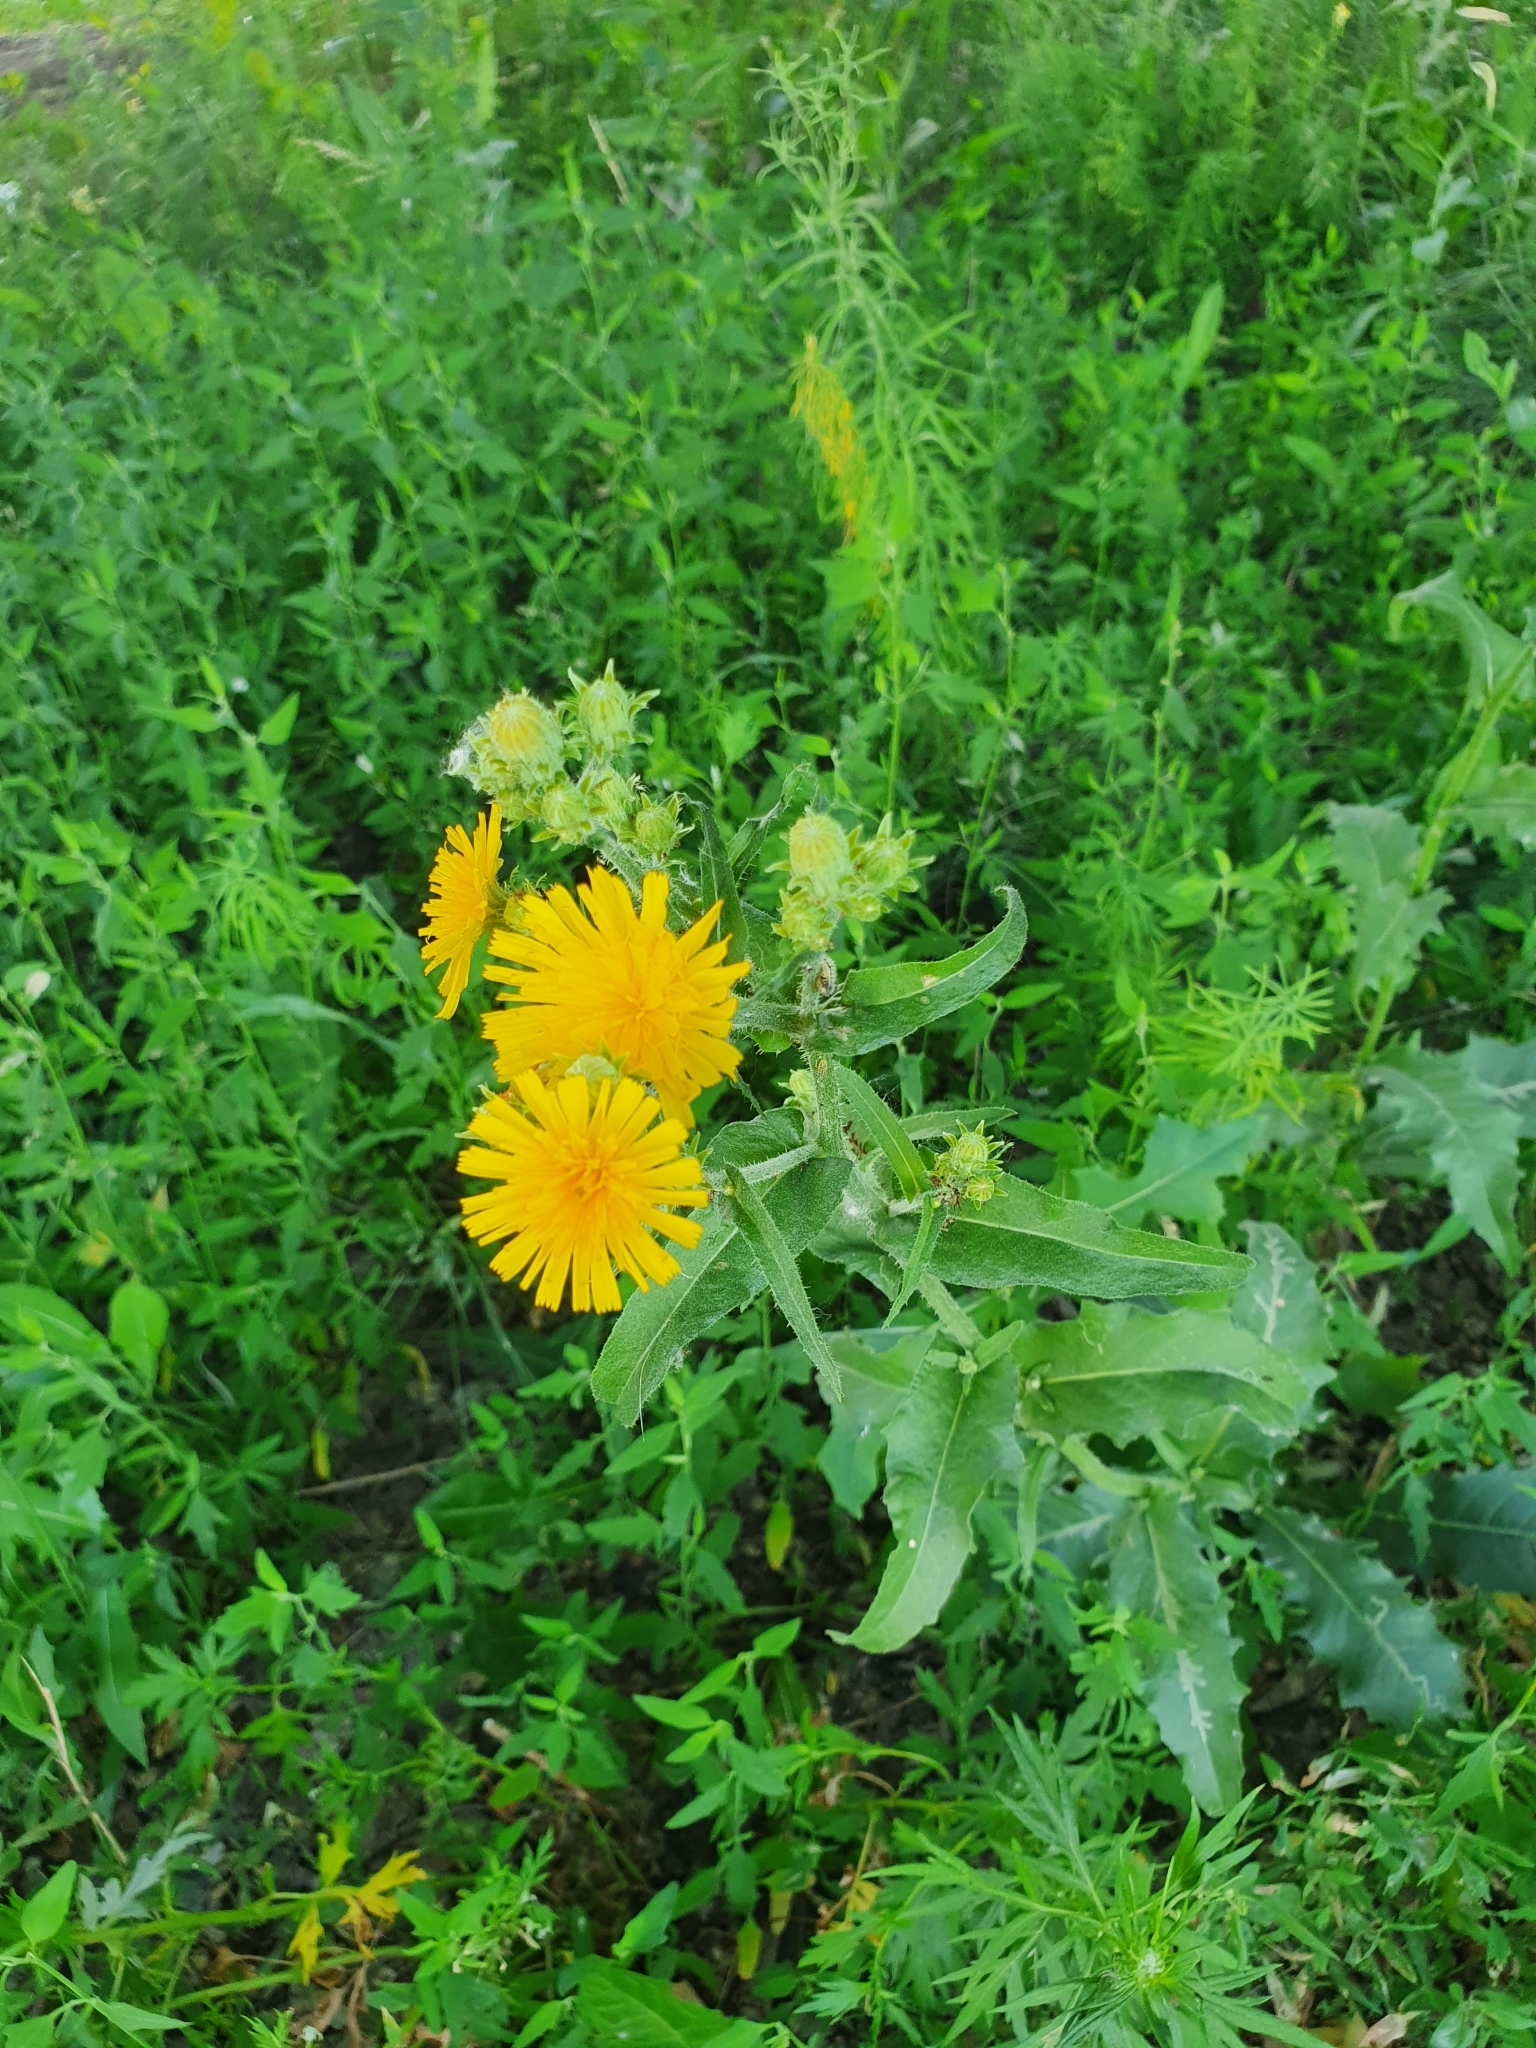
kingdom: Plantae
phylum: Tracheophyta
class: Magnoliopsida
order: Asterales
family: Asteraceae
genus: Picris
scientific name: Picris hieracioides
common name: Hawkweed oxtongue
